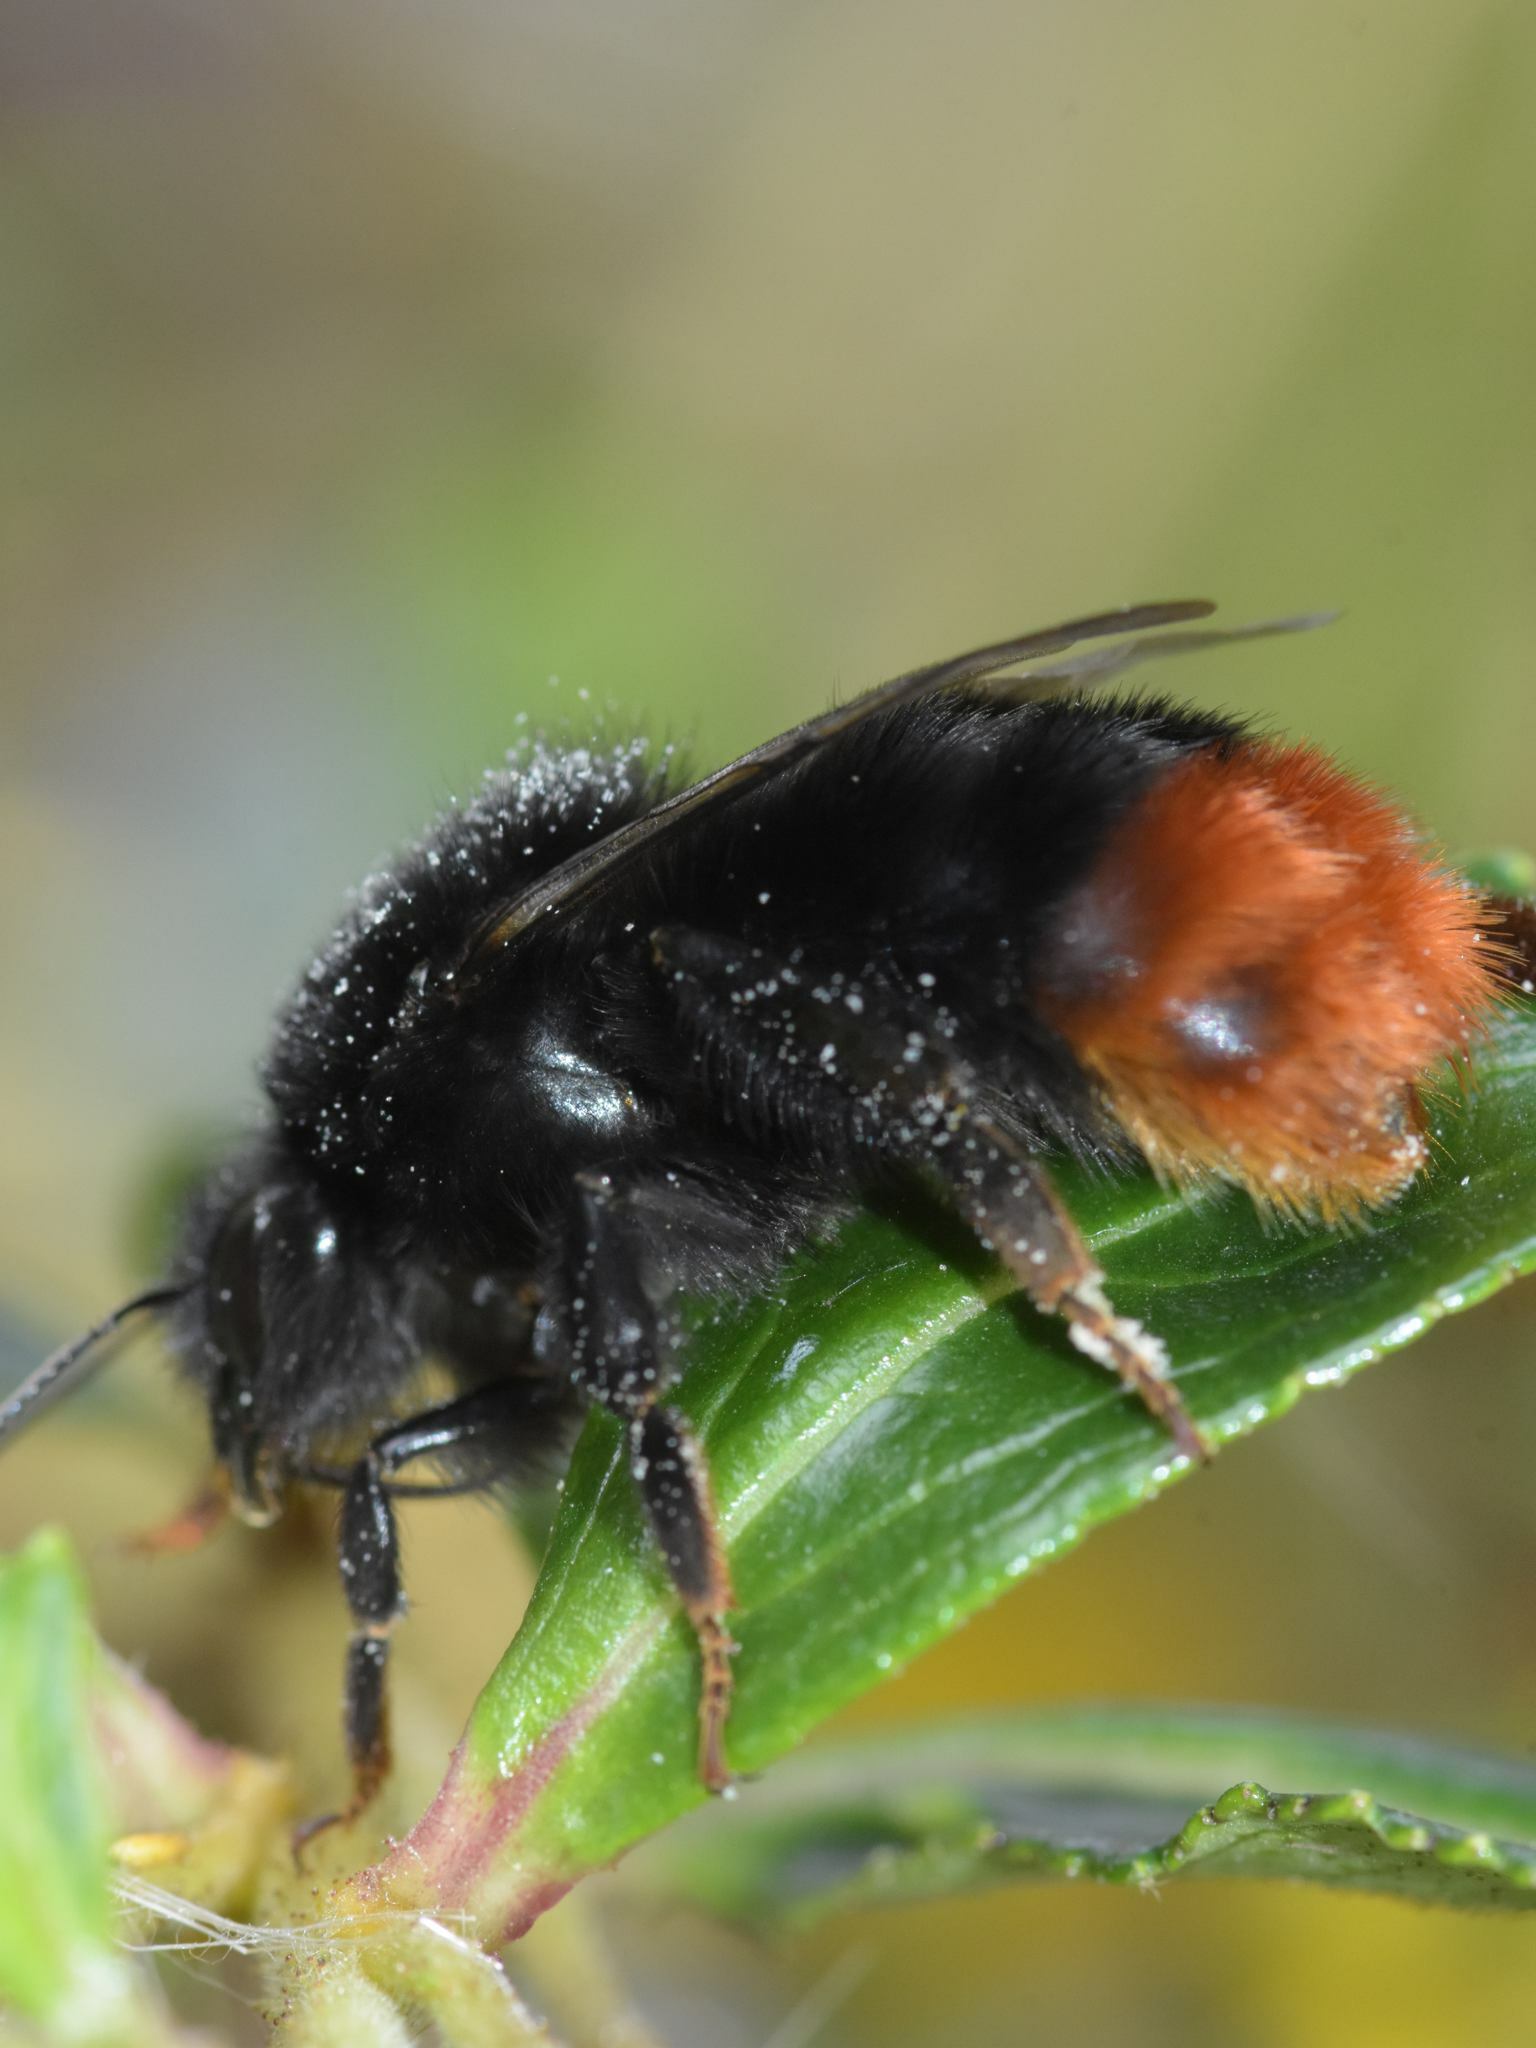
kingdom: Animalia
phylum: Arthropoda
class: Insecta
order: Hymenoptera
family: Apidae
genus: Bombus
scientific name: Bombus lapidarius
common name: Large red-tailed humble-bee
